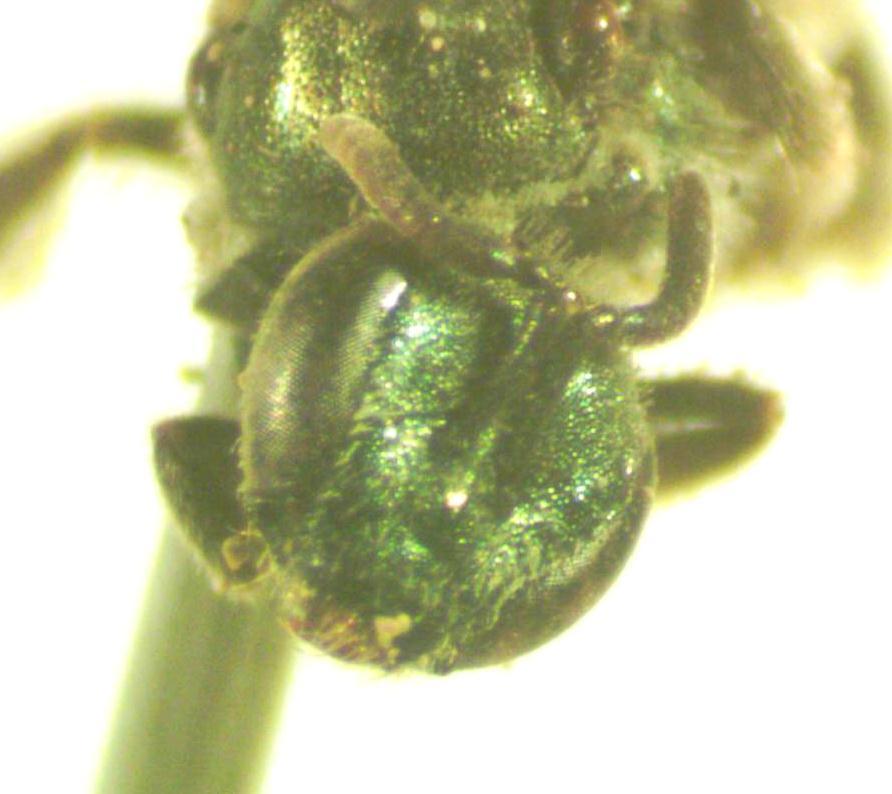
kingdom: Animalia
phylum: Arthropoda
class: Insecta
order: Hymenoptera
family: Halictidae
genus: Dialictus
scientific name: Dialictus
